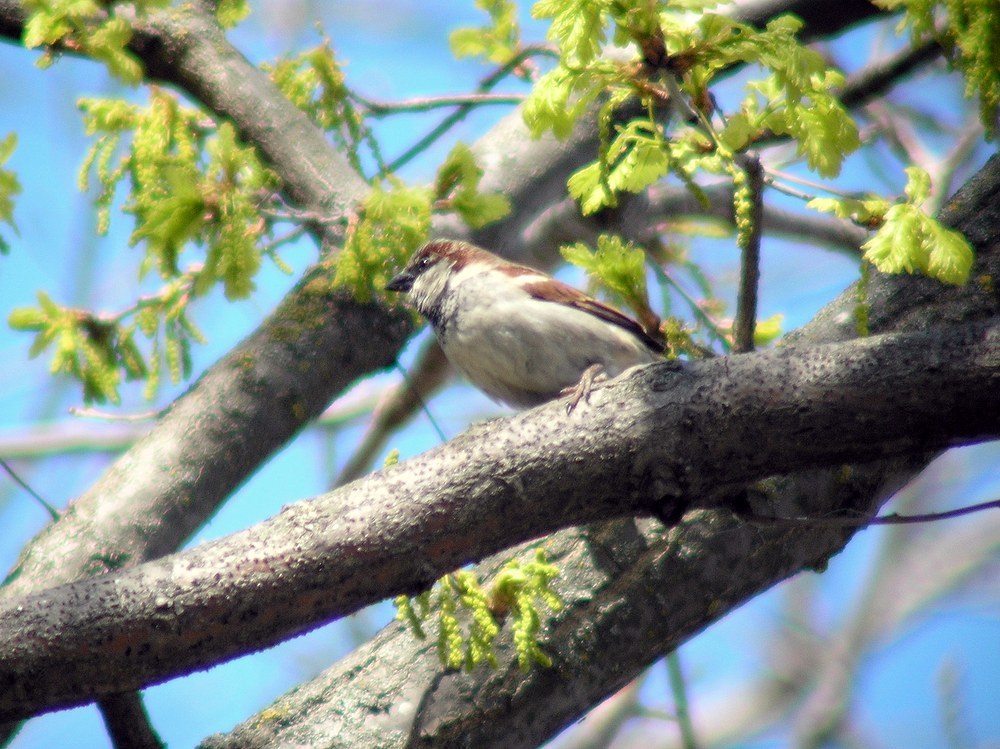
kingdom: Animalia
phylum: Chordata
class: Aves
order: Passeriformes
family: Passeridae
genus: Passer
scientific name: Passer domesticus
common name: House sparrow
